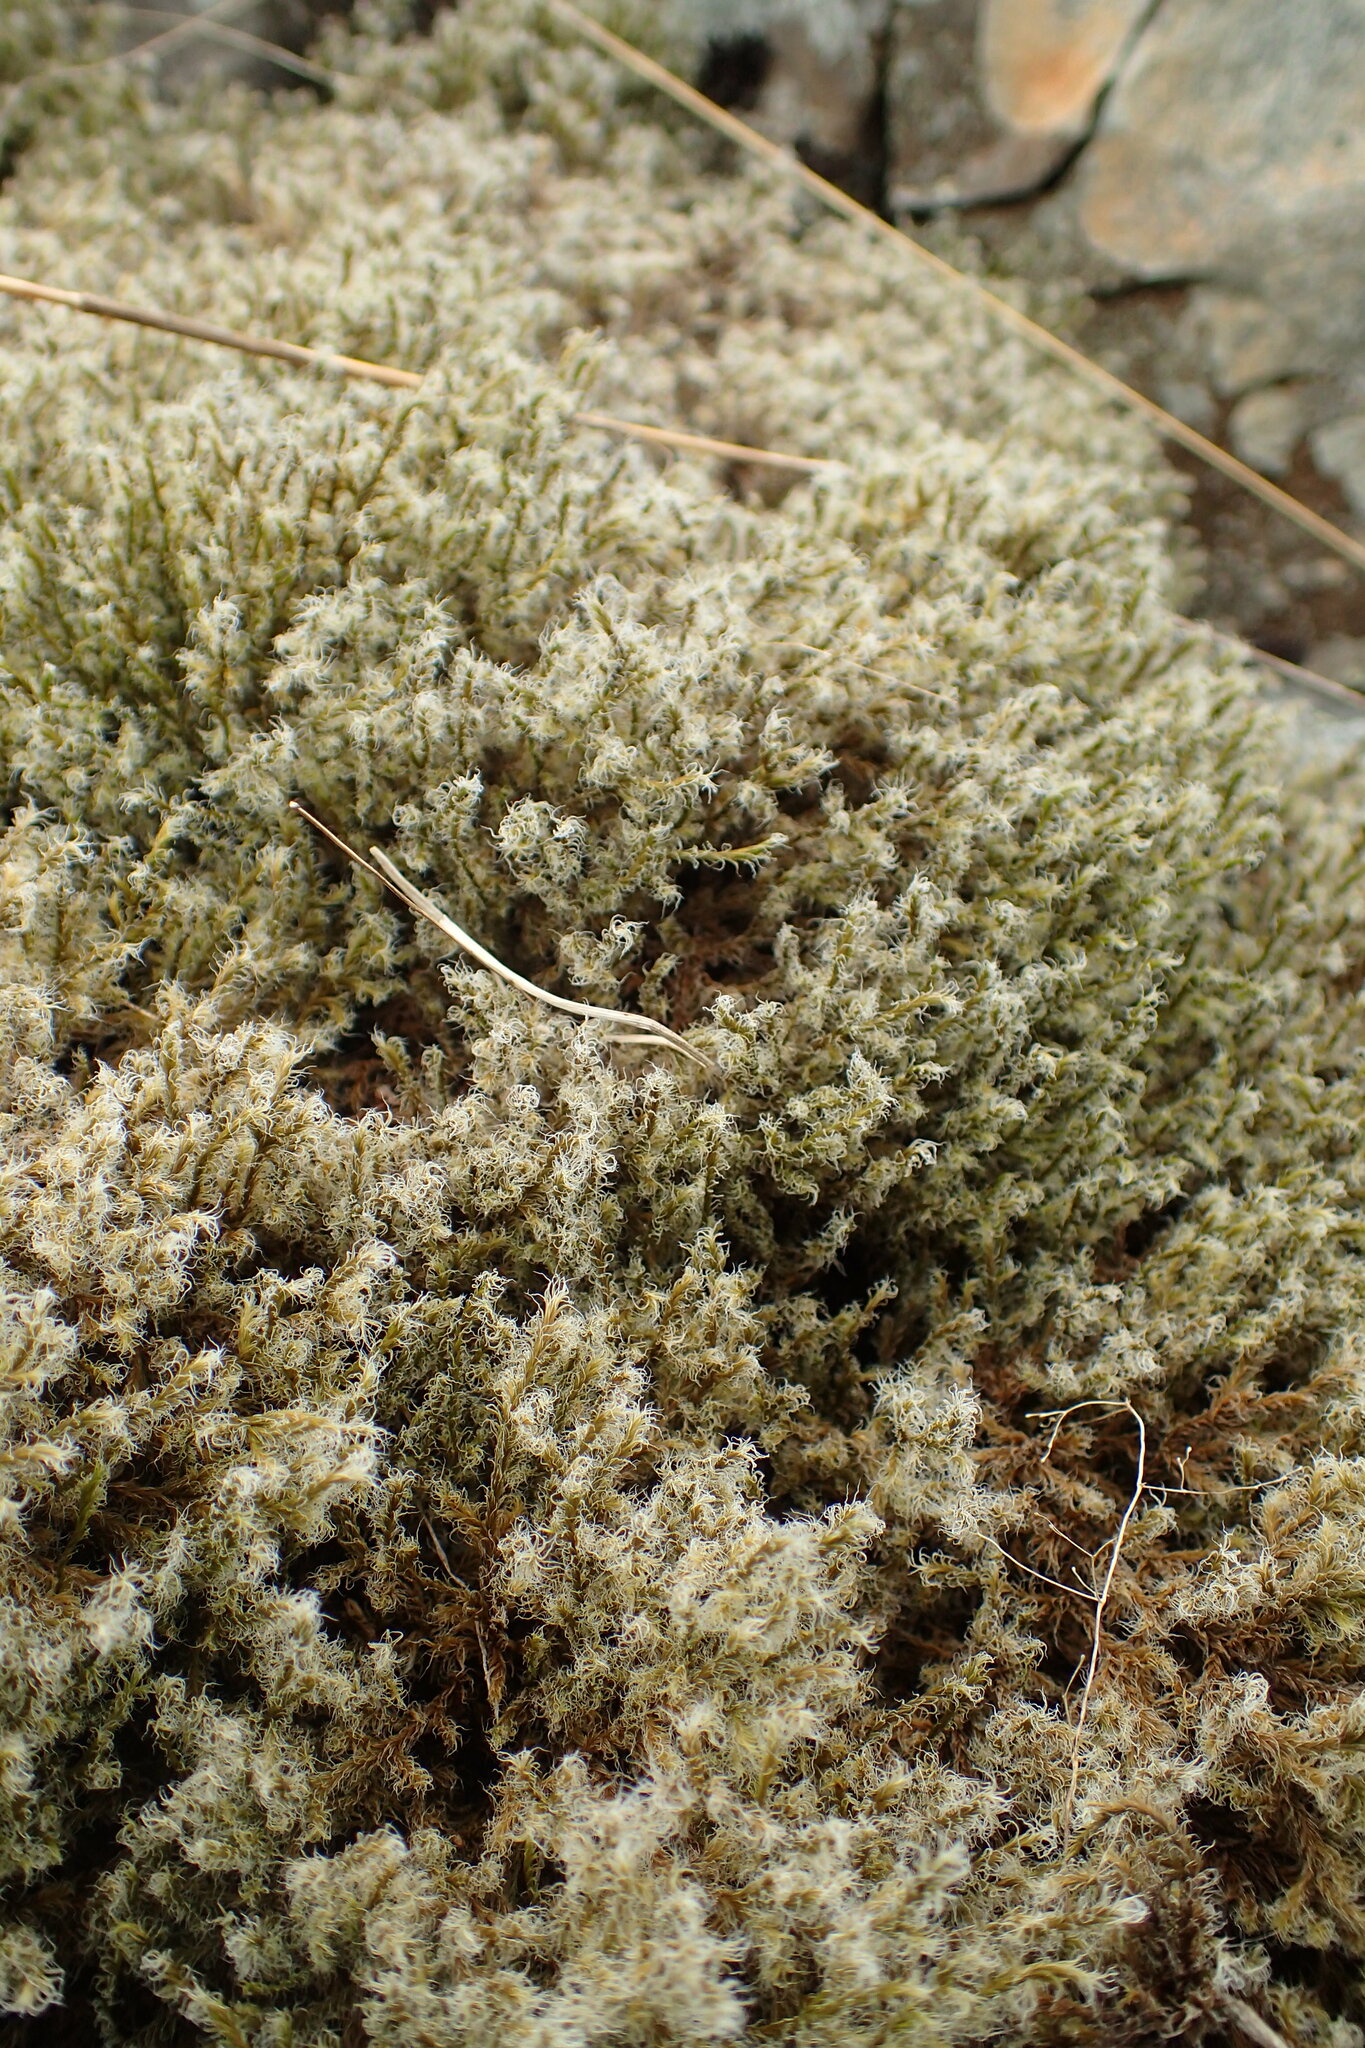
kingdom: Plantae
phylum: Bryophyta
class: Bryopsida
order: Grimmiales
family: Grimmiaceae
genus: Racomitrium
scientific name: Racomitrium lanuginosum
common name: Hoary rock moss
